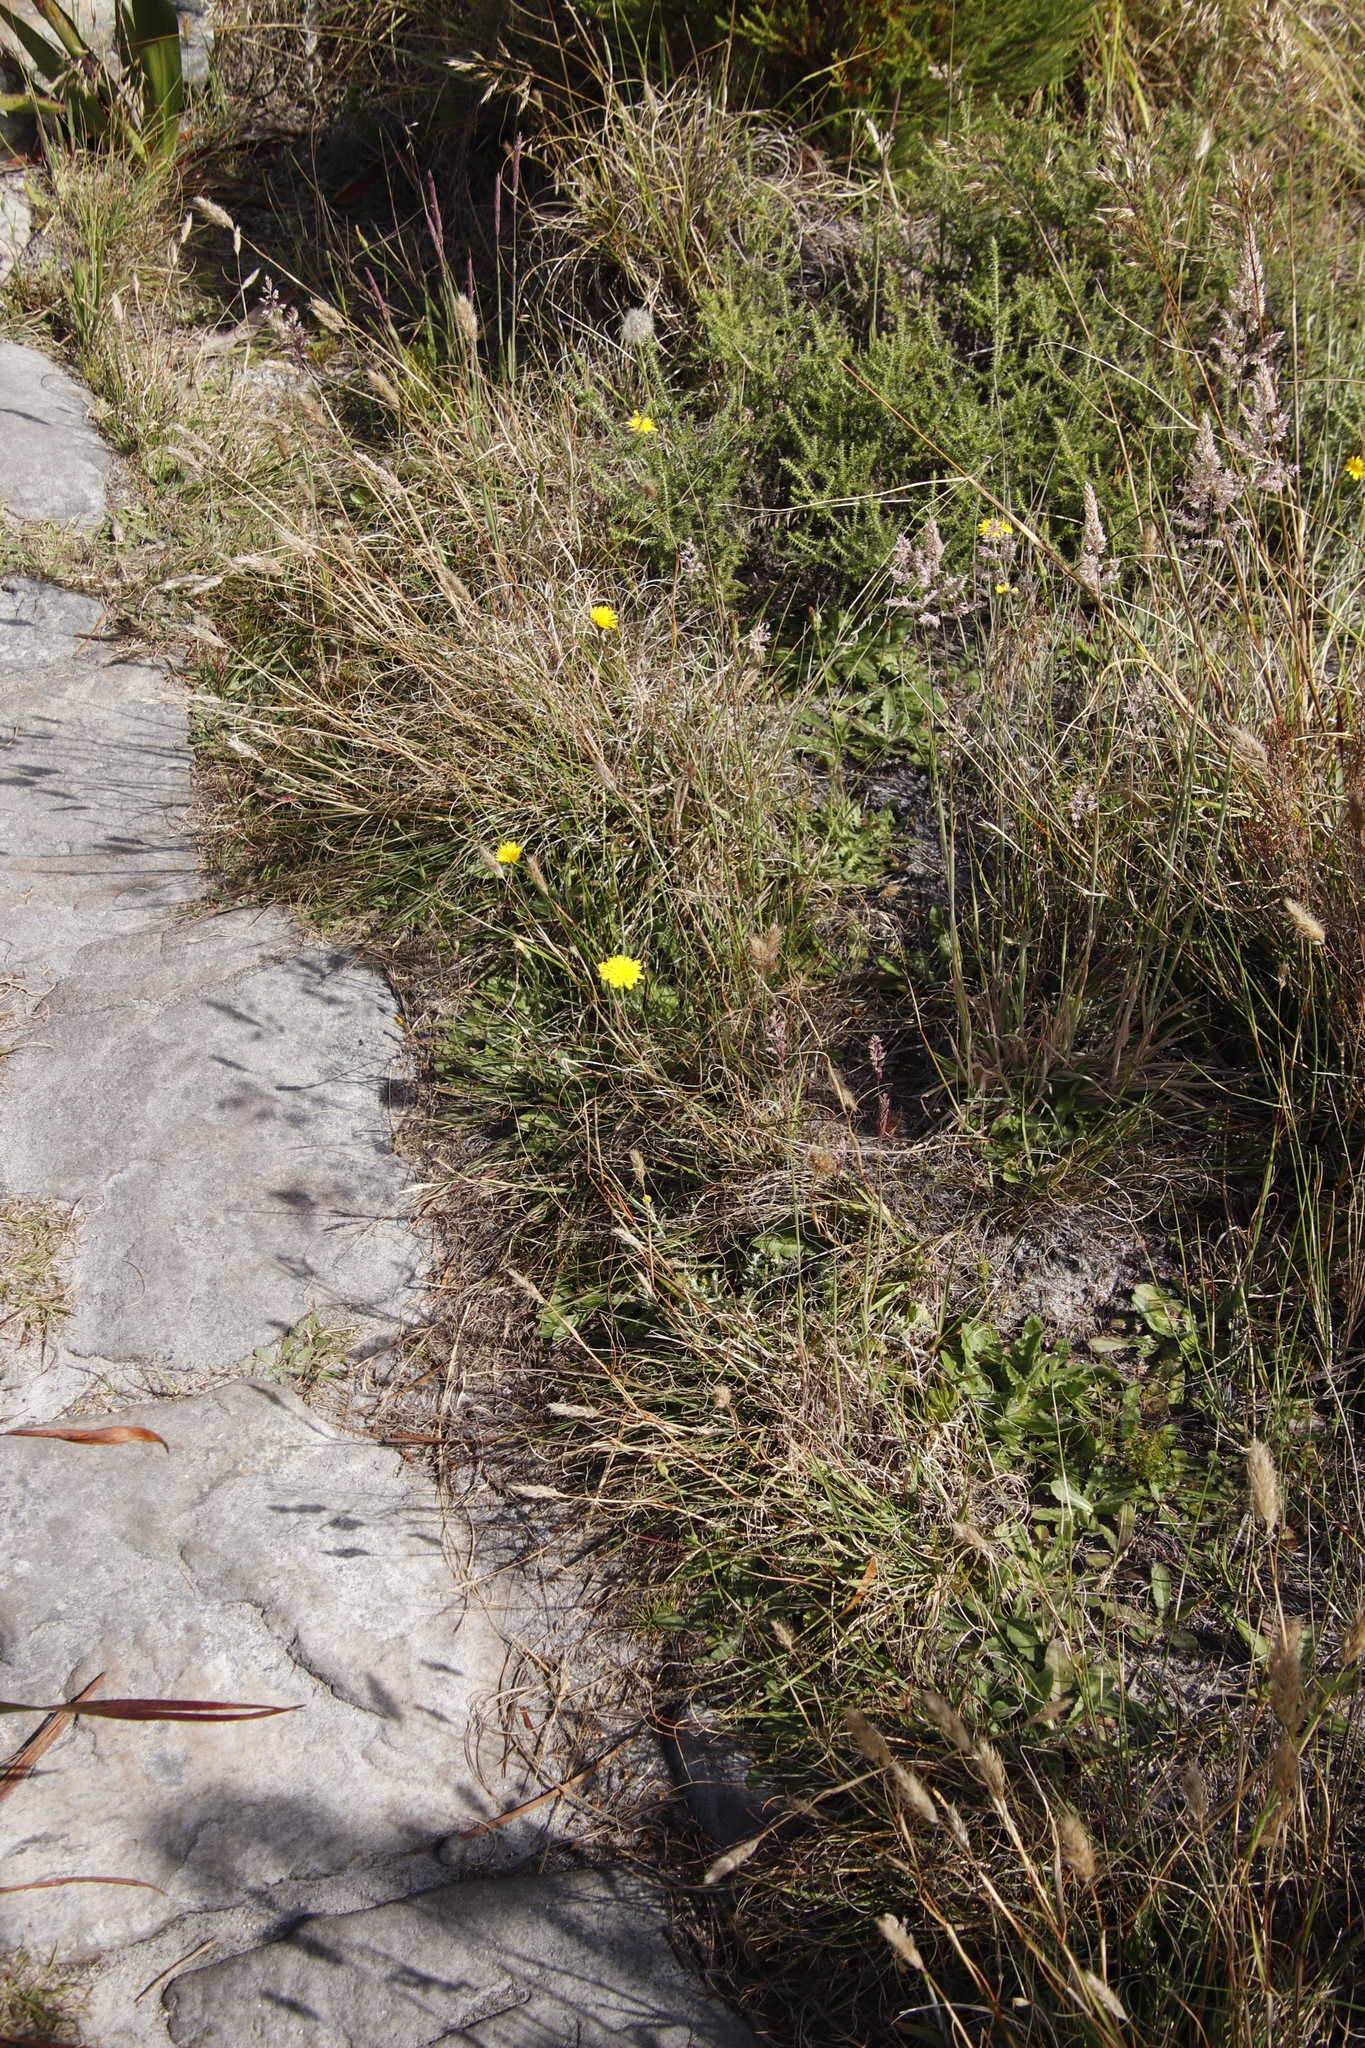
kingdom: Plantae
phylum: Tracheophyta
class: Magnoliopsida
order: Asterales
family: Asteraceae
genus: Hypochaeris
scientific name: Hypochaeris radicata
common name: Flatweed
